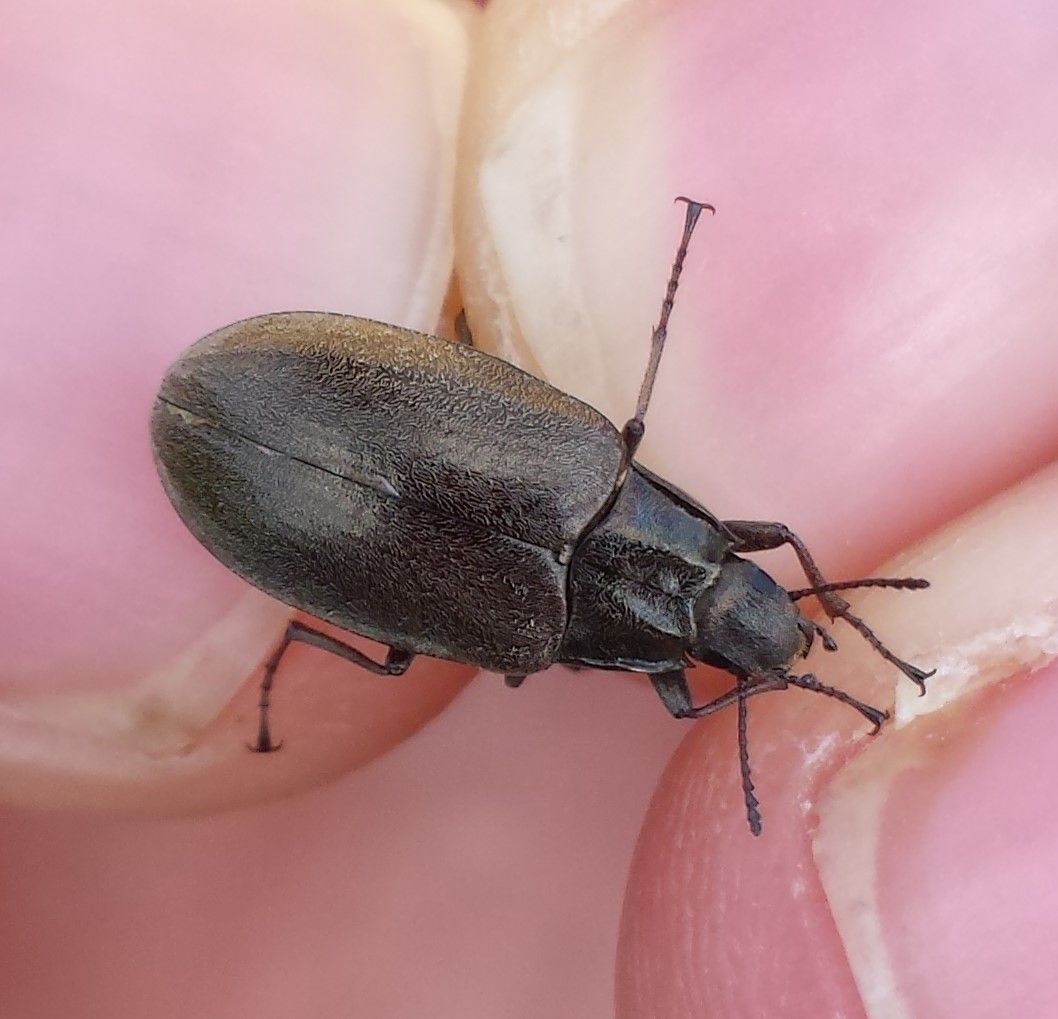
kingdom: Animalia
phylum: Arthropoda
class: Insecta
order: Coleoptera
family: Tenebrionidae
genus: Bothrotes
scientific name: Bothrotes canaliculatus
